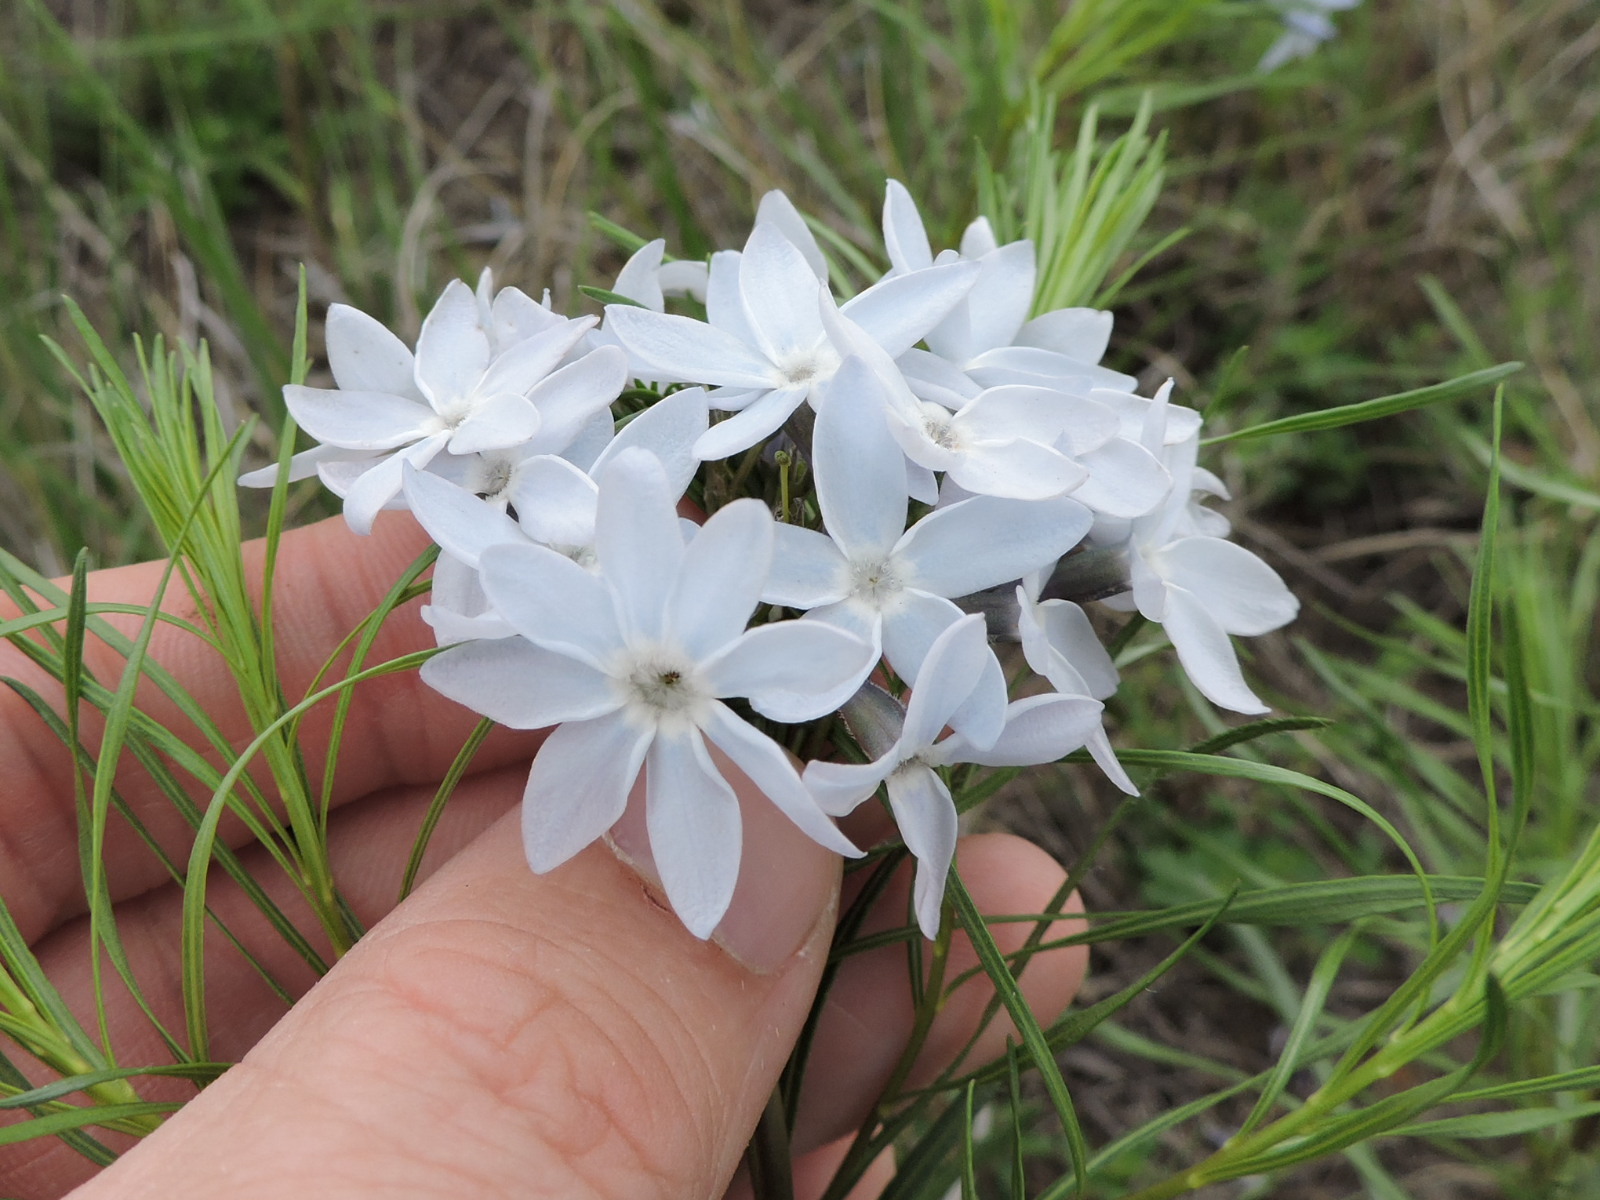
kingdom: Plantae
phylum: Tracheophyta
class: Magnoliopsida
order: Gentianales
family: Apocynaceae
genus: Amsonia
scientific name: Amsonia ciliata
